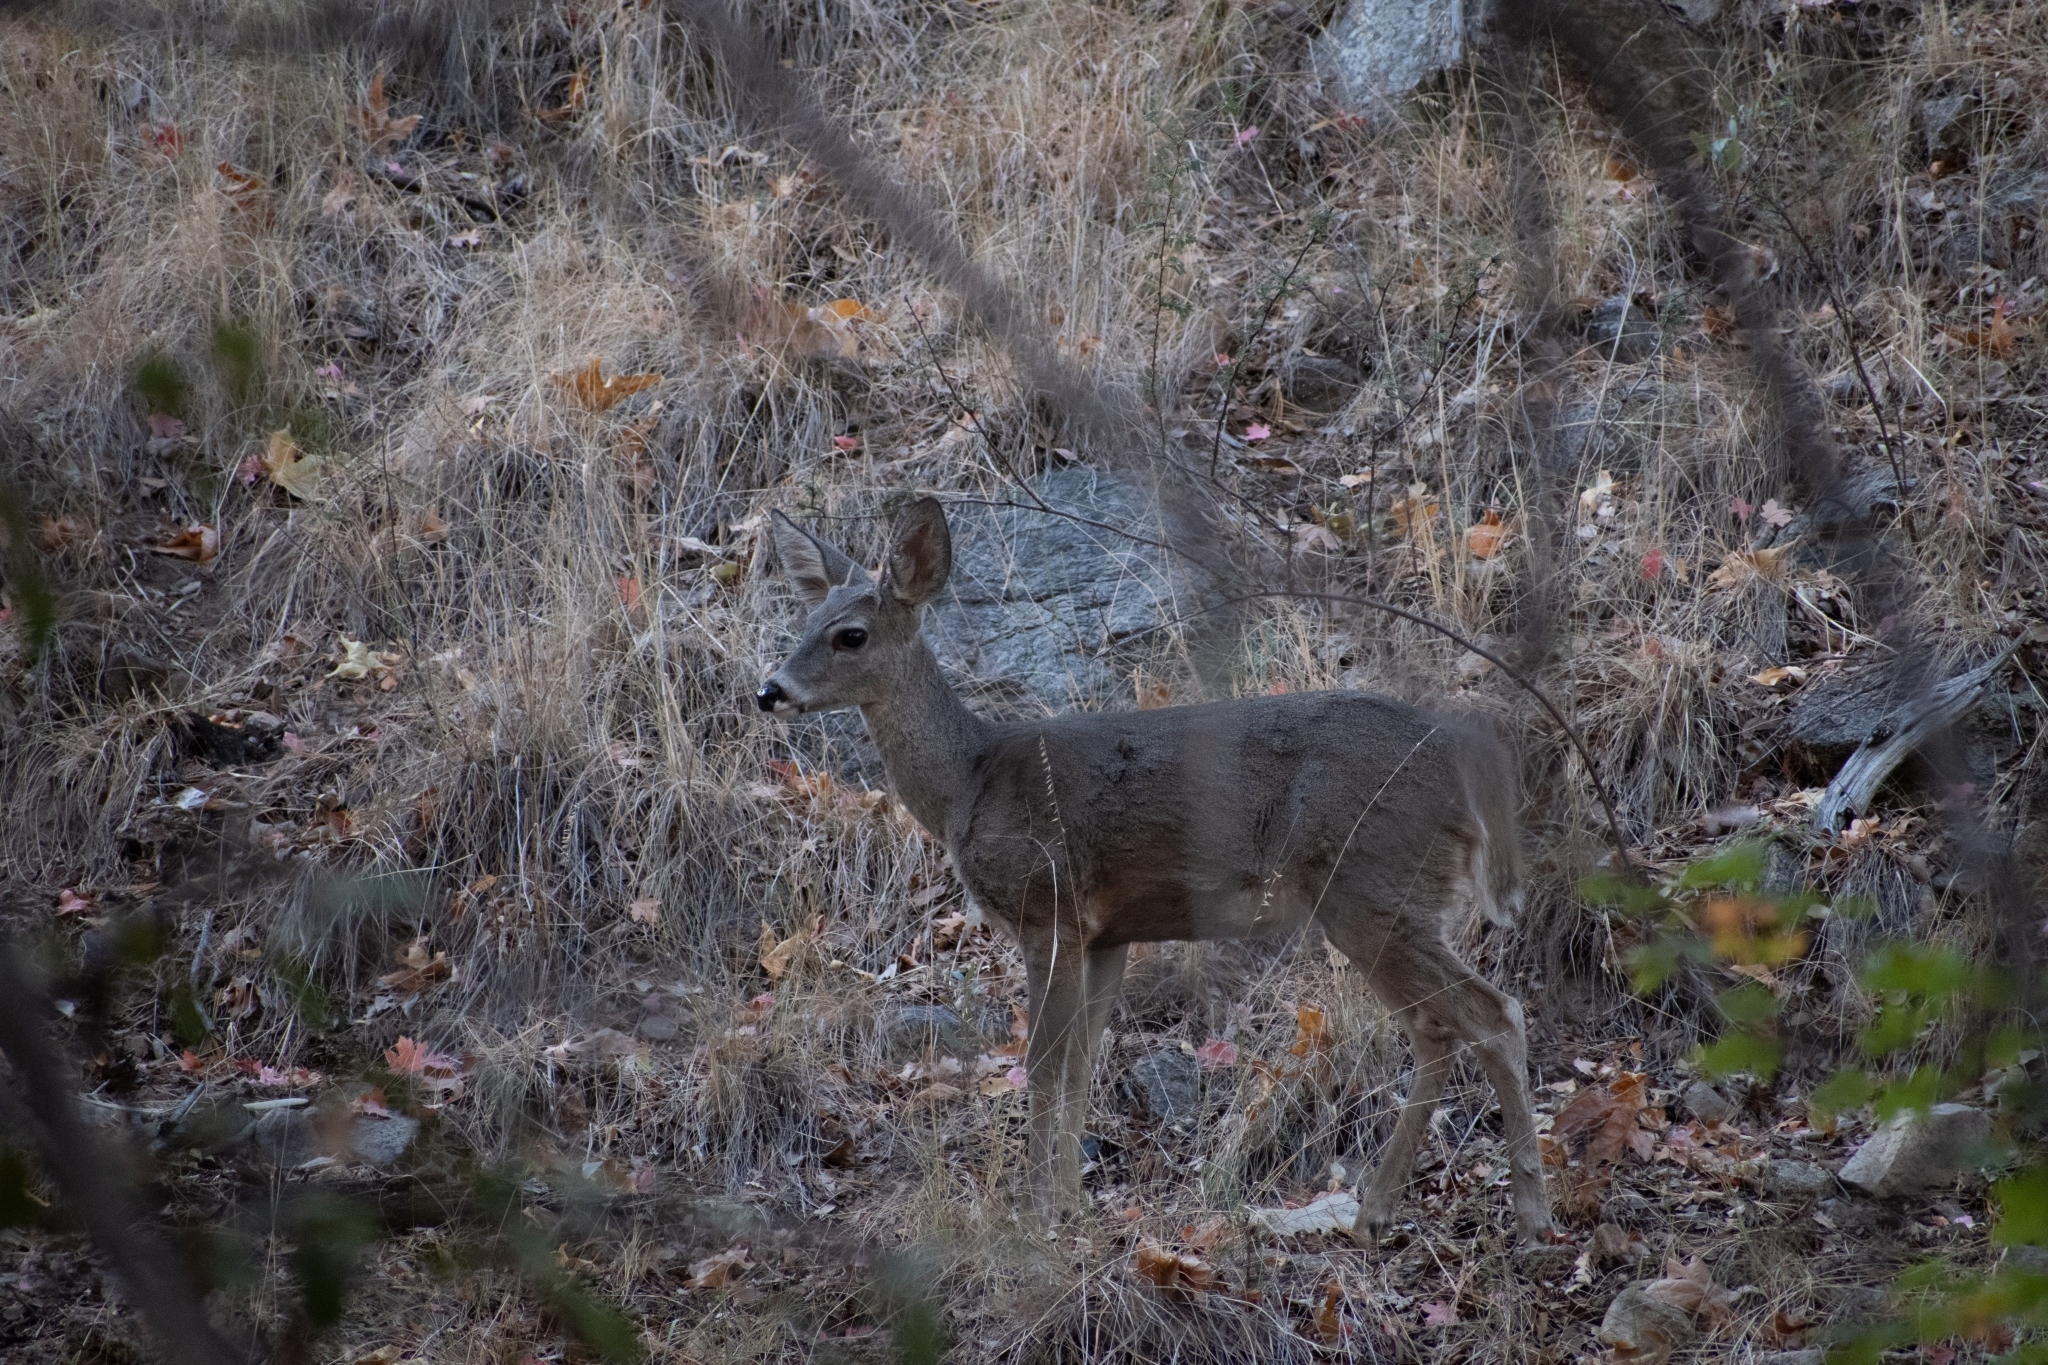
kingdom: Animalia
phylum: Chordata
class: Mammalia
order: Artiodactyla
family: Cervidae
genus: Odocoileus
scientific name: Odocoileus virginianus
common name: White-tailed deer
